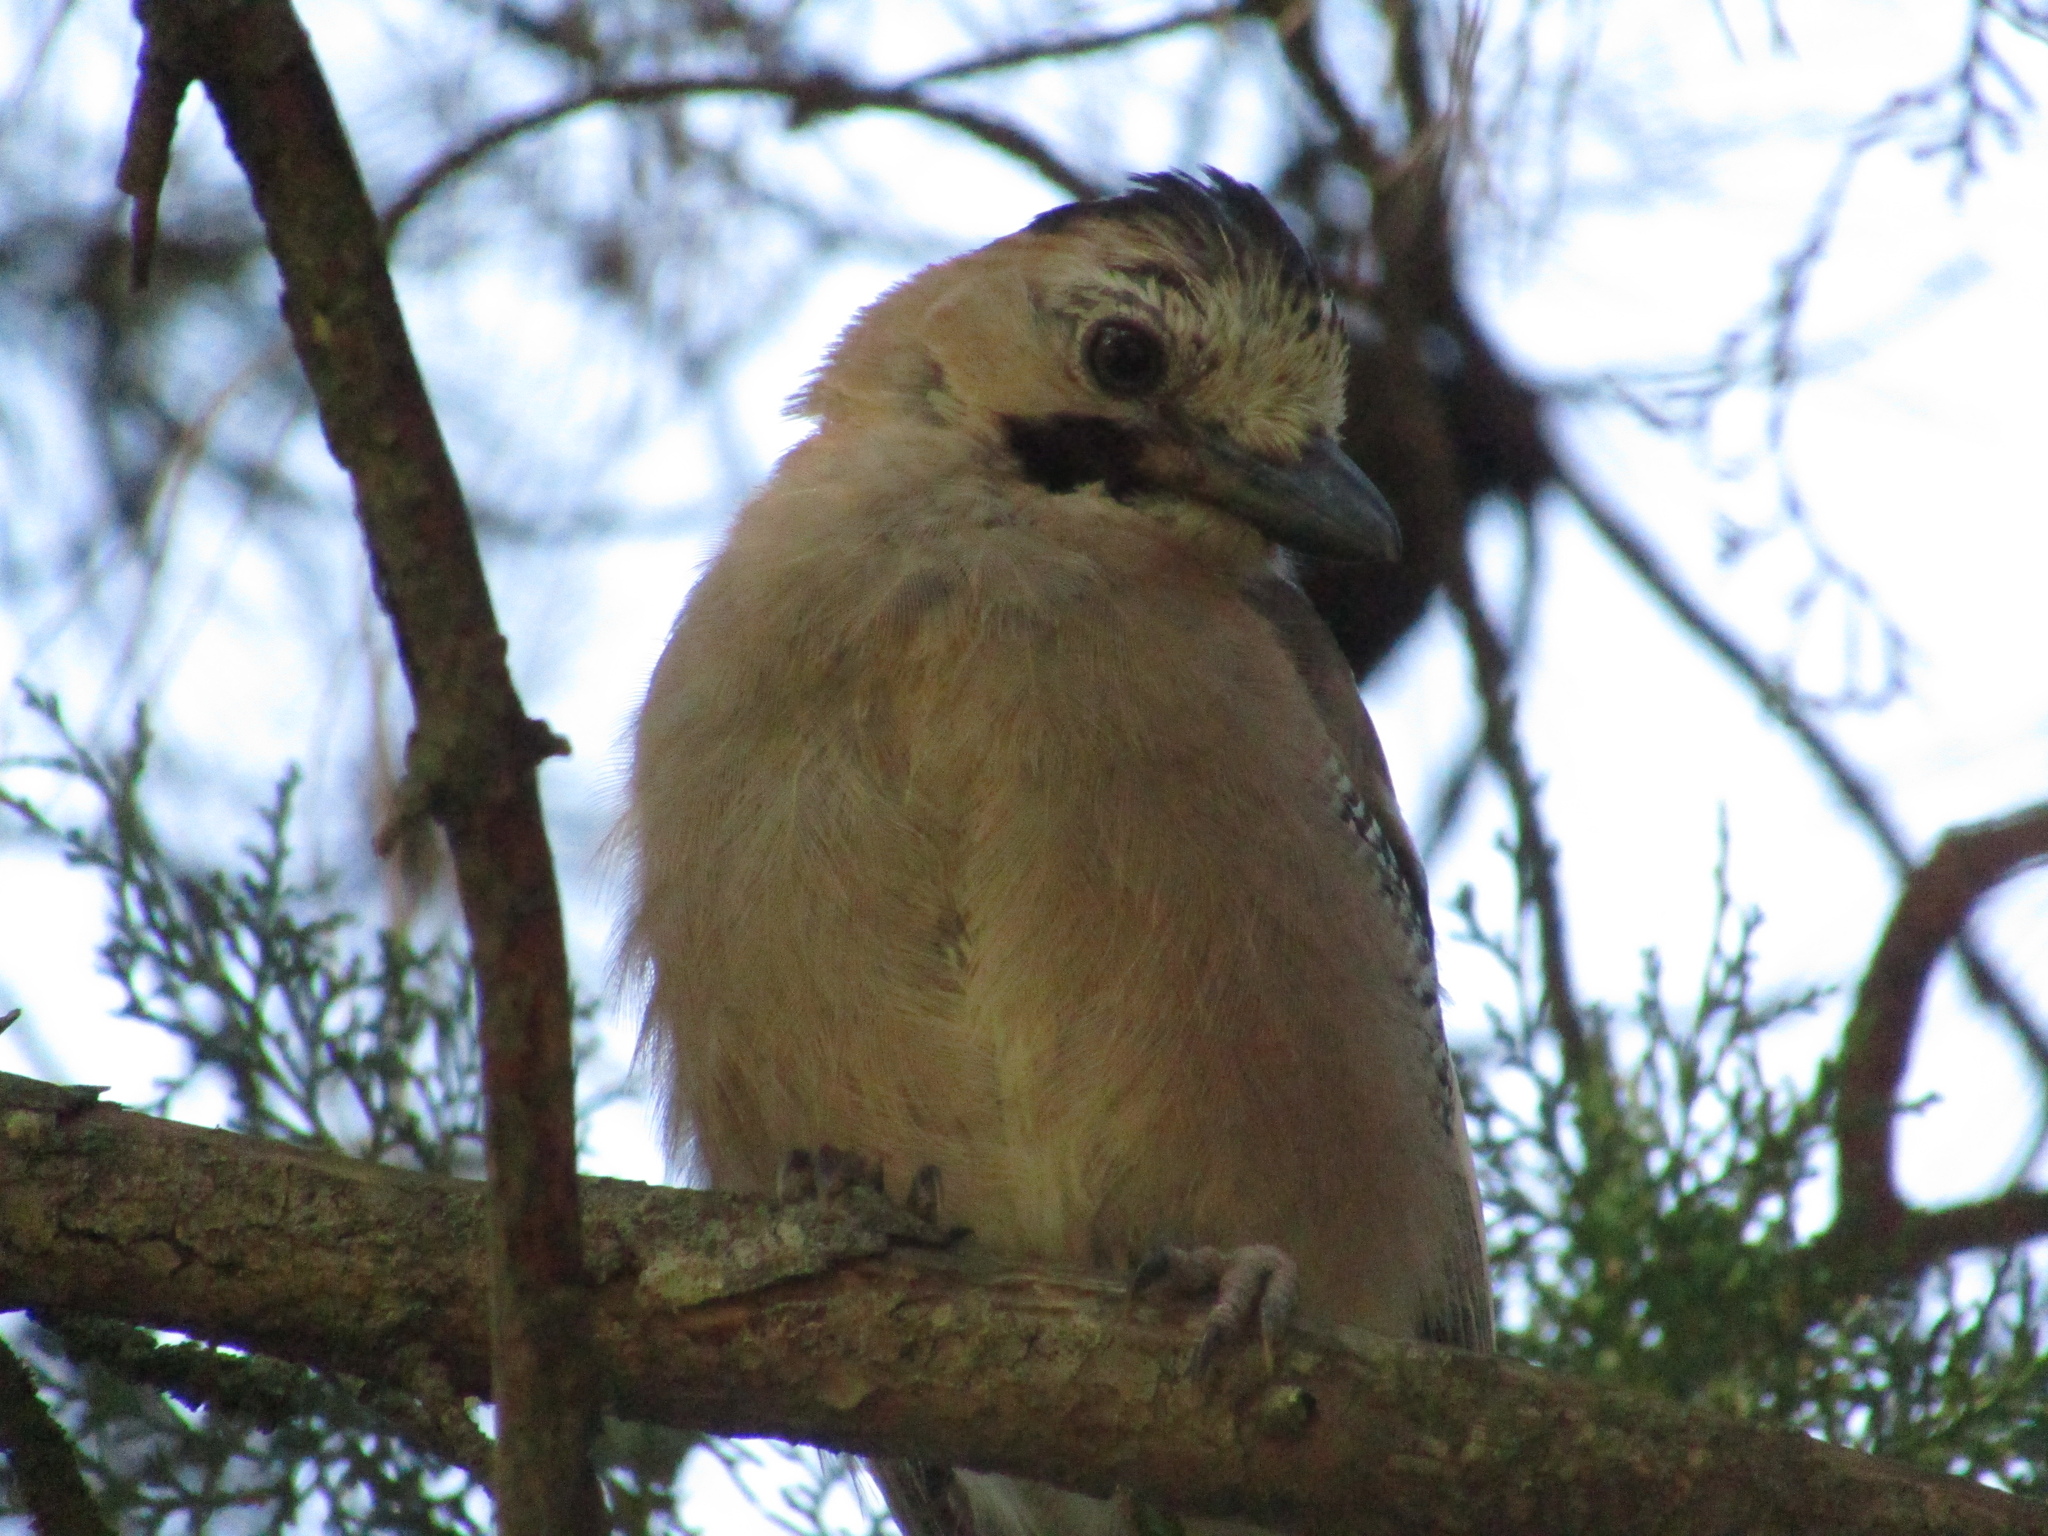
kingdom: Animalia
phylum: Chordata
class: Aves
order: Passeriformes
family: Corvidae
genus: Garrulus
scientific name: Garrulus glandarius
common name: Eurasian jay
